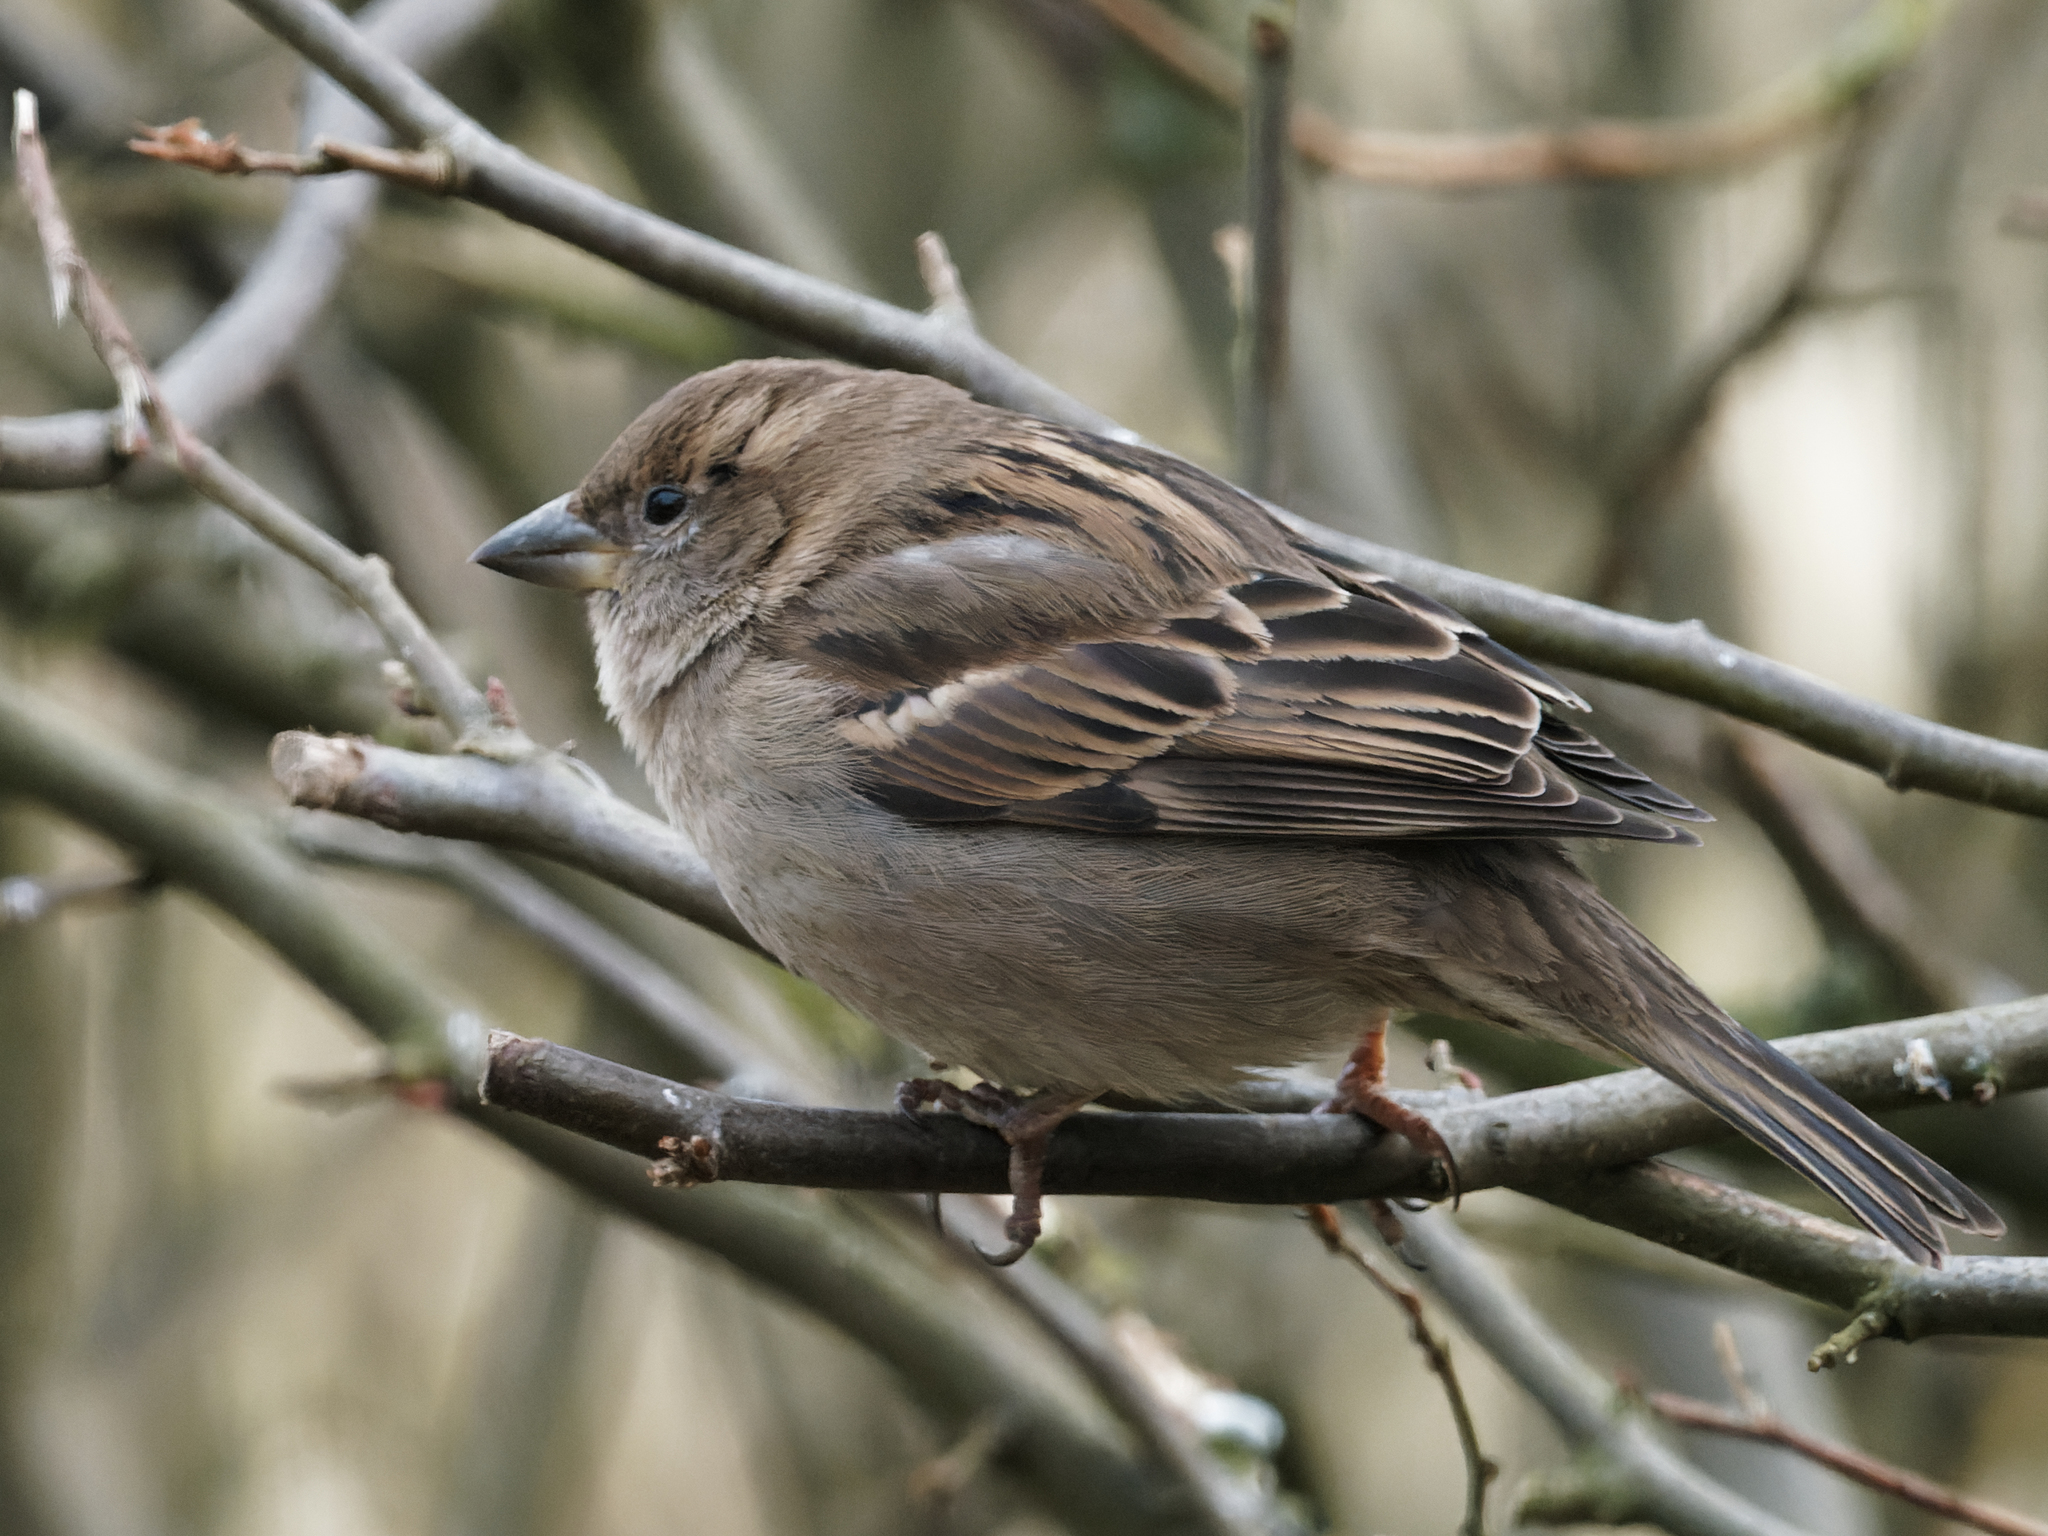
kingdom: Animalia
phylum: Chordata
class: Aves
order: Passeriformes
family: Passeridae
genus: Passer
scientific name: Passer domesticus
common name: House sparrow
